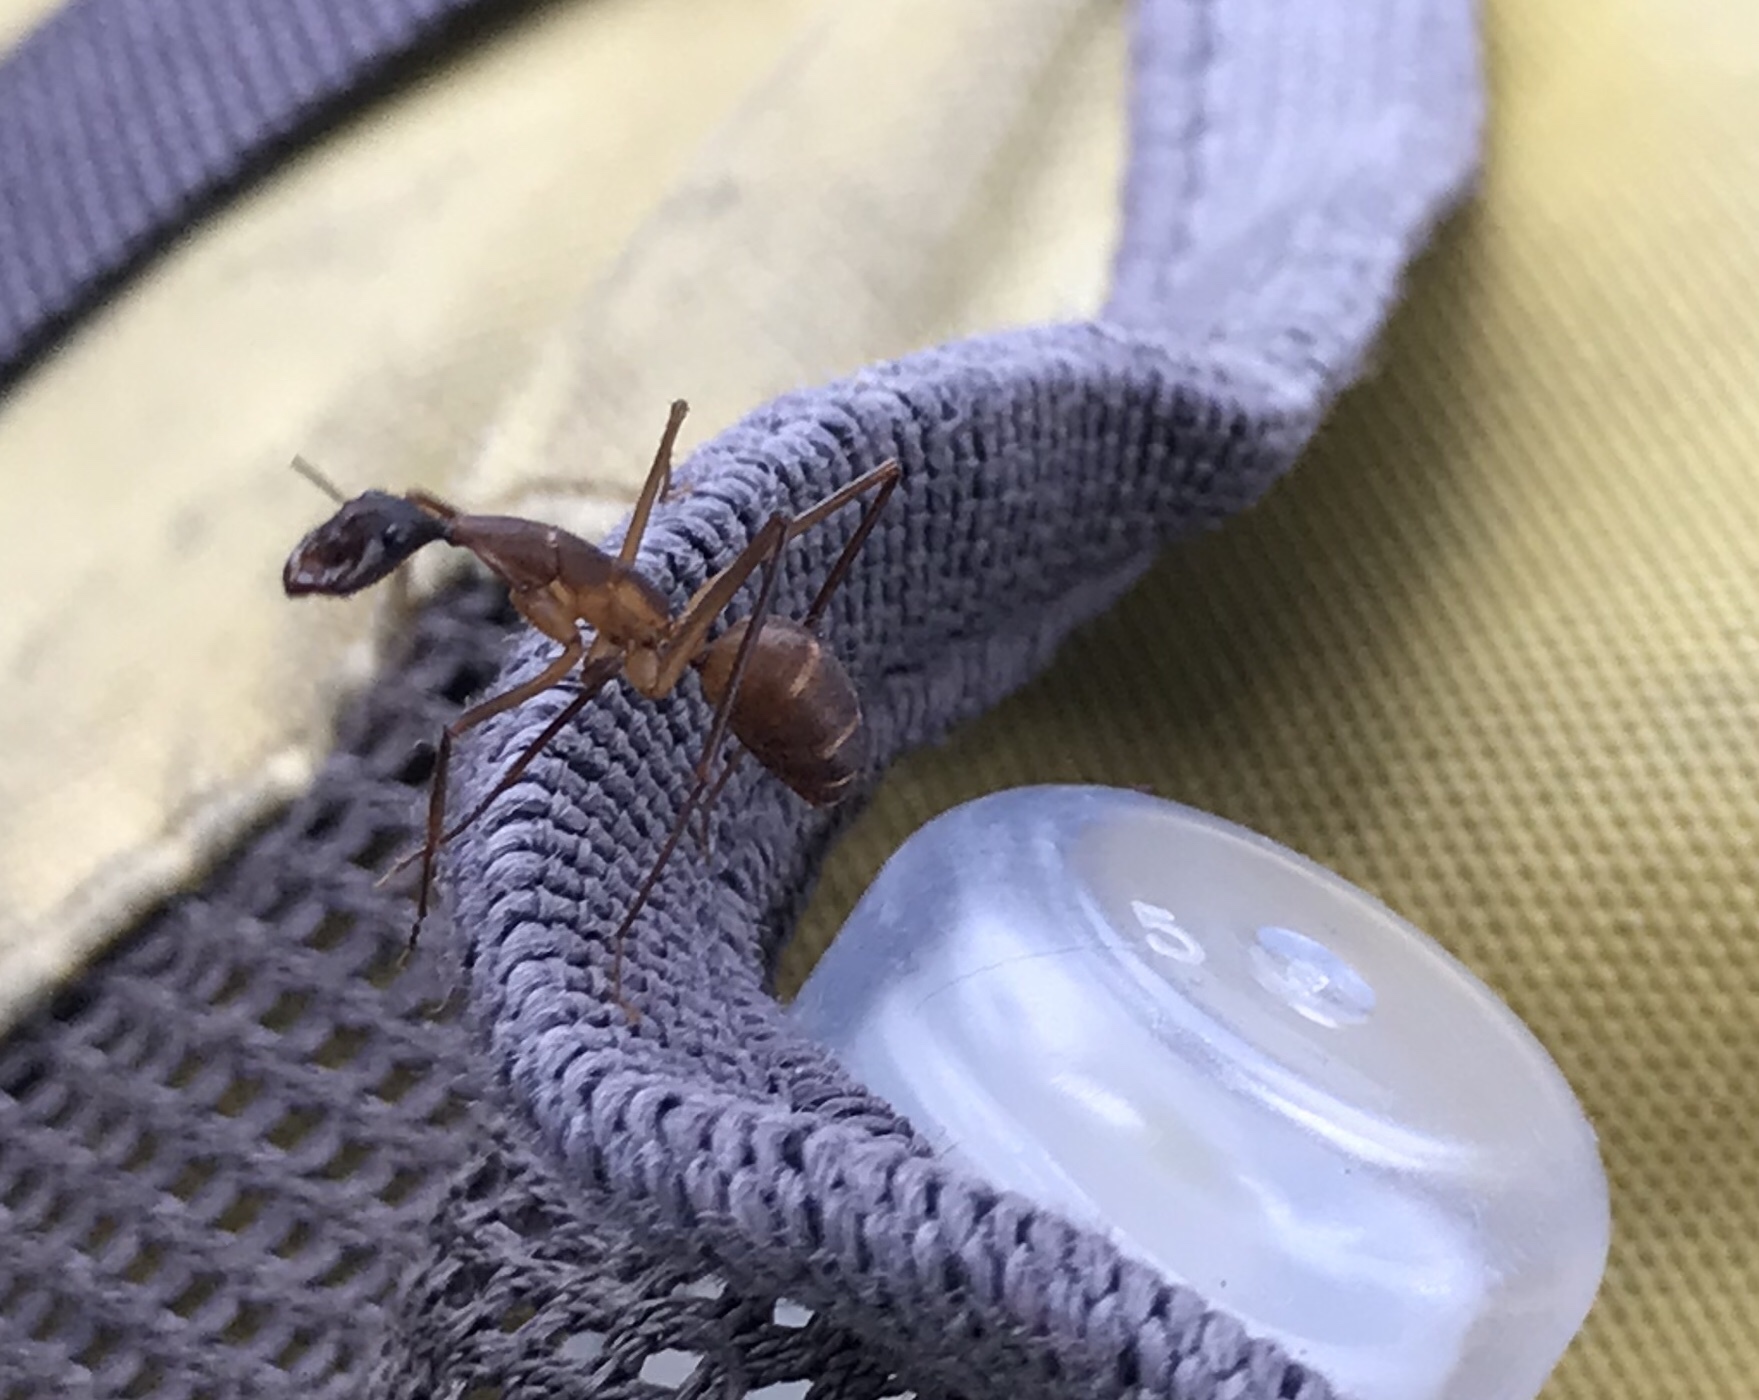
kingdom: Animalia
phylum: Arthropoda
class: Insecta
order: Hymenoptera
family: Formicidae
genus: Camponotus
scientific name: Camponotus ager
